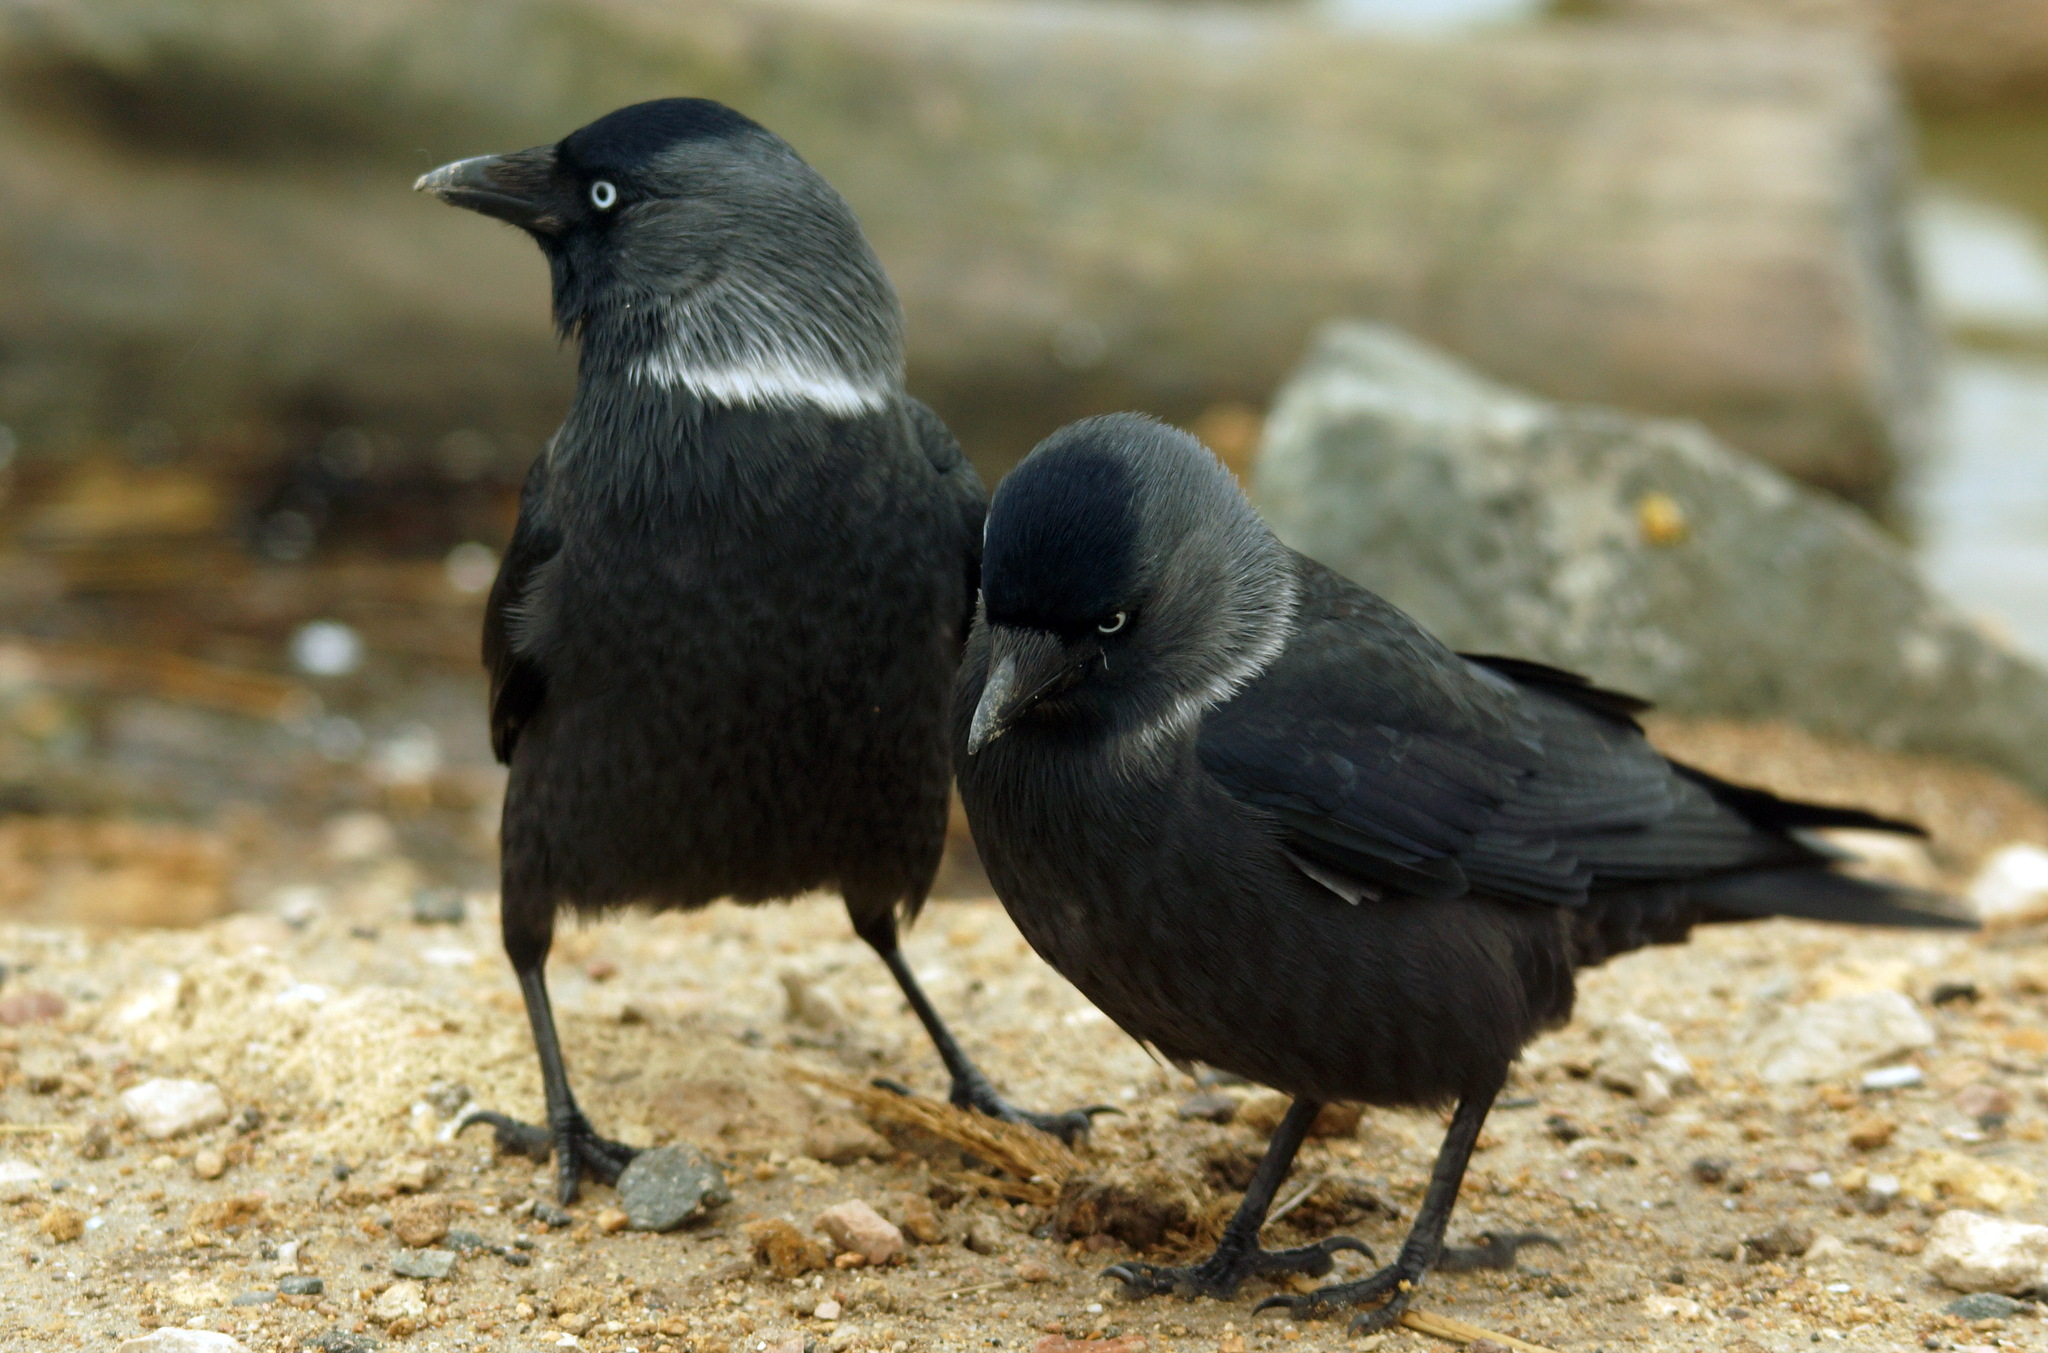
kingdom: Animalia
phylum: Chordata
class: Aves
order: Passeriformes
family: Corvidae
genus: Coloeus
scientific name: Coloeus monedula
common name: Western jackdaw
